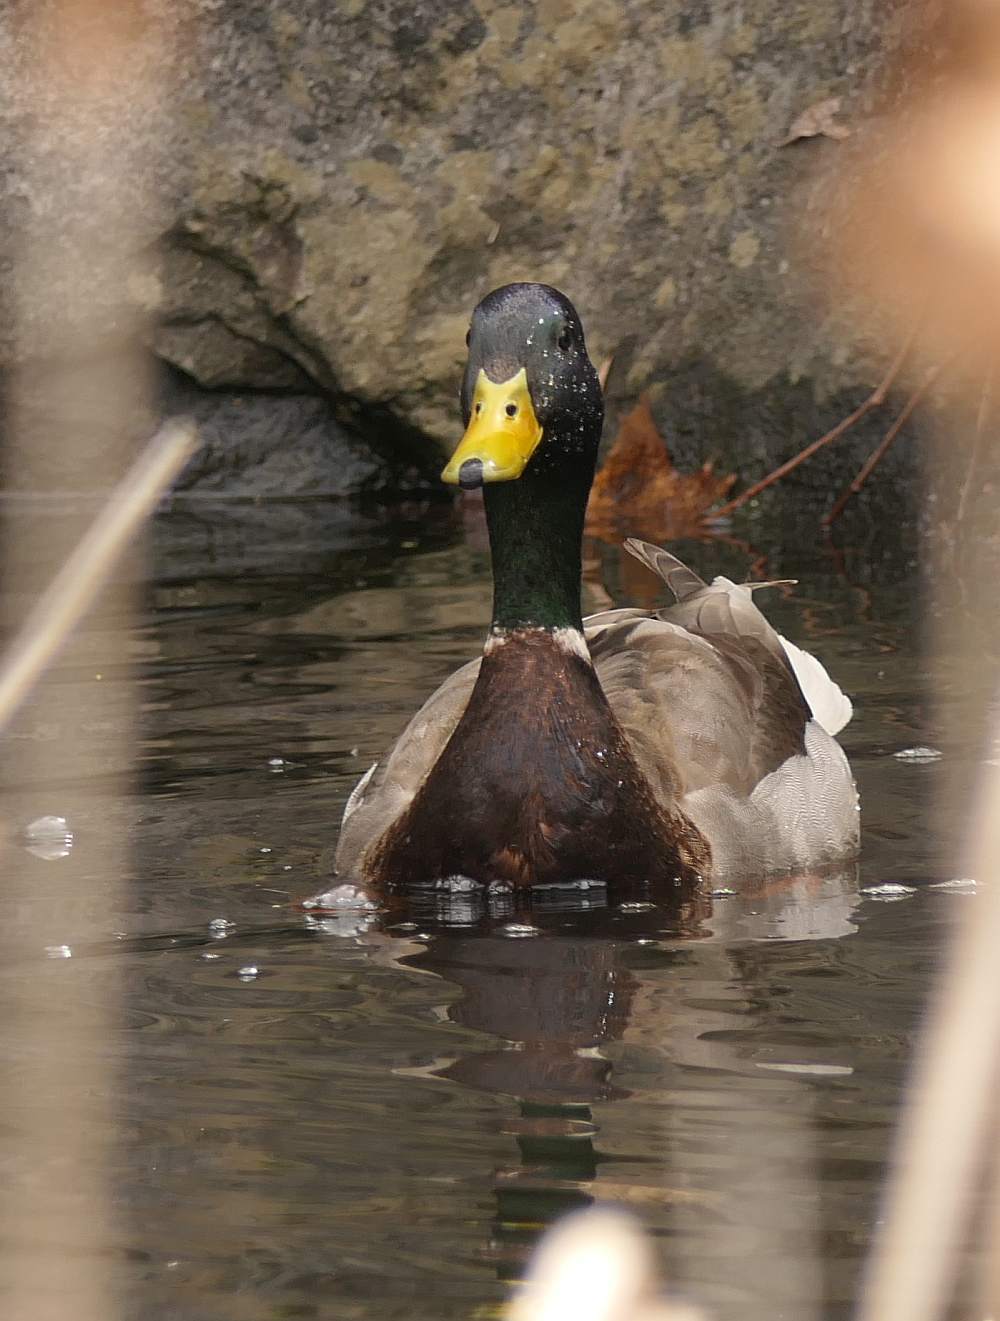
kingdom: Animalia
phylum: Chordata
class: Aves
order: Anseriformes
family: Anatidae
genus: Anas
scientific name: Anas platyrhynchos
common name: Mallard
